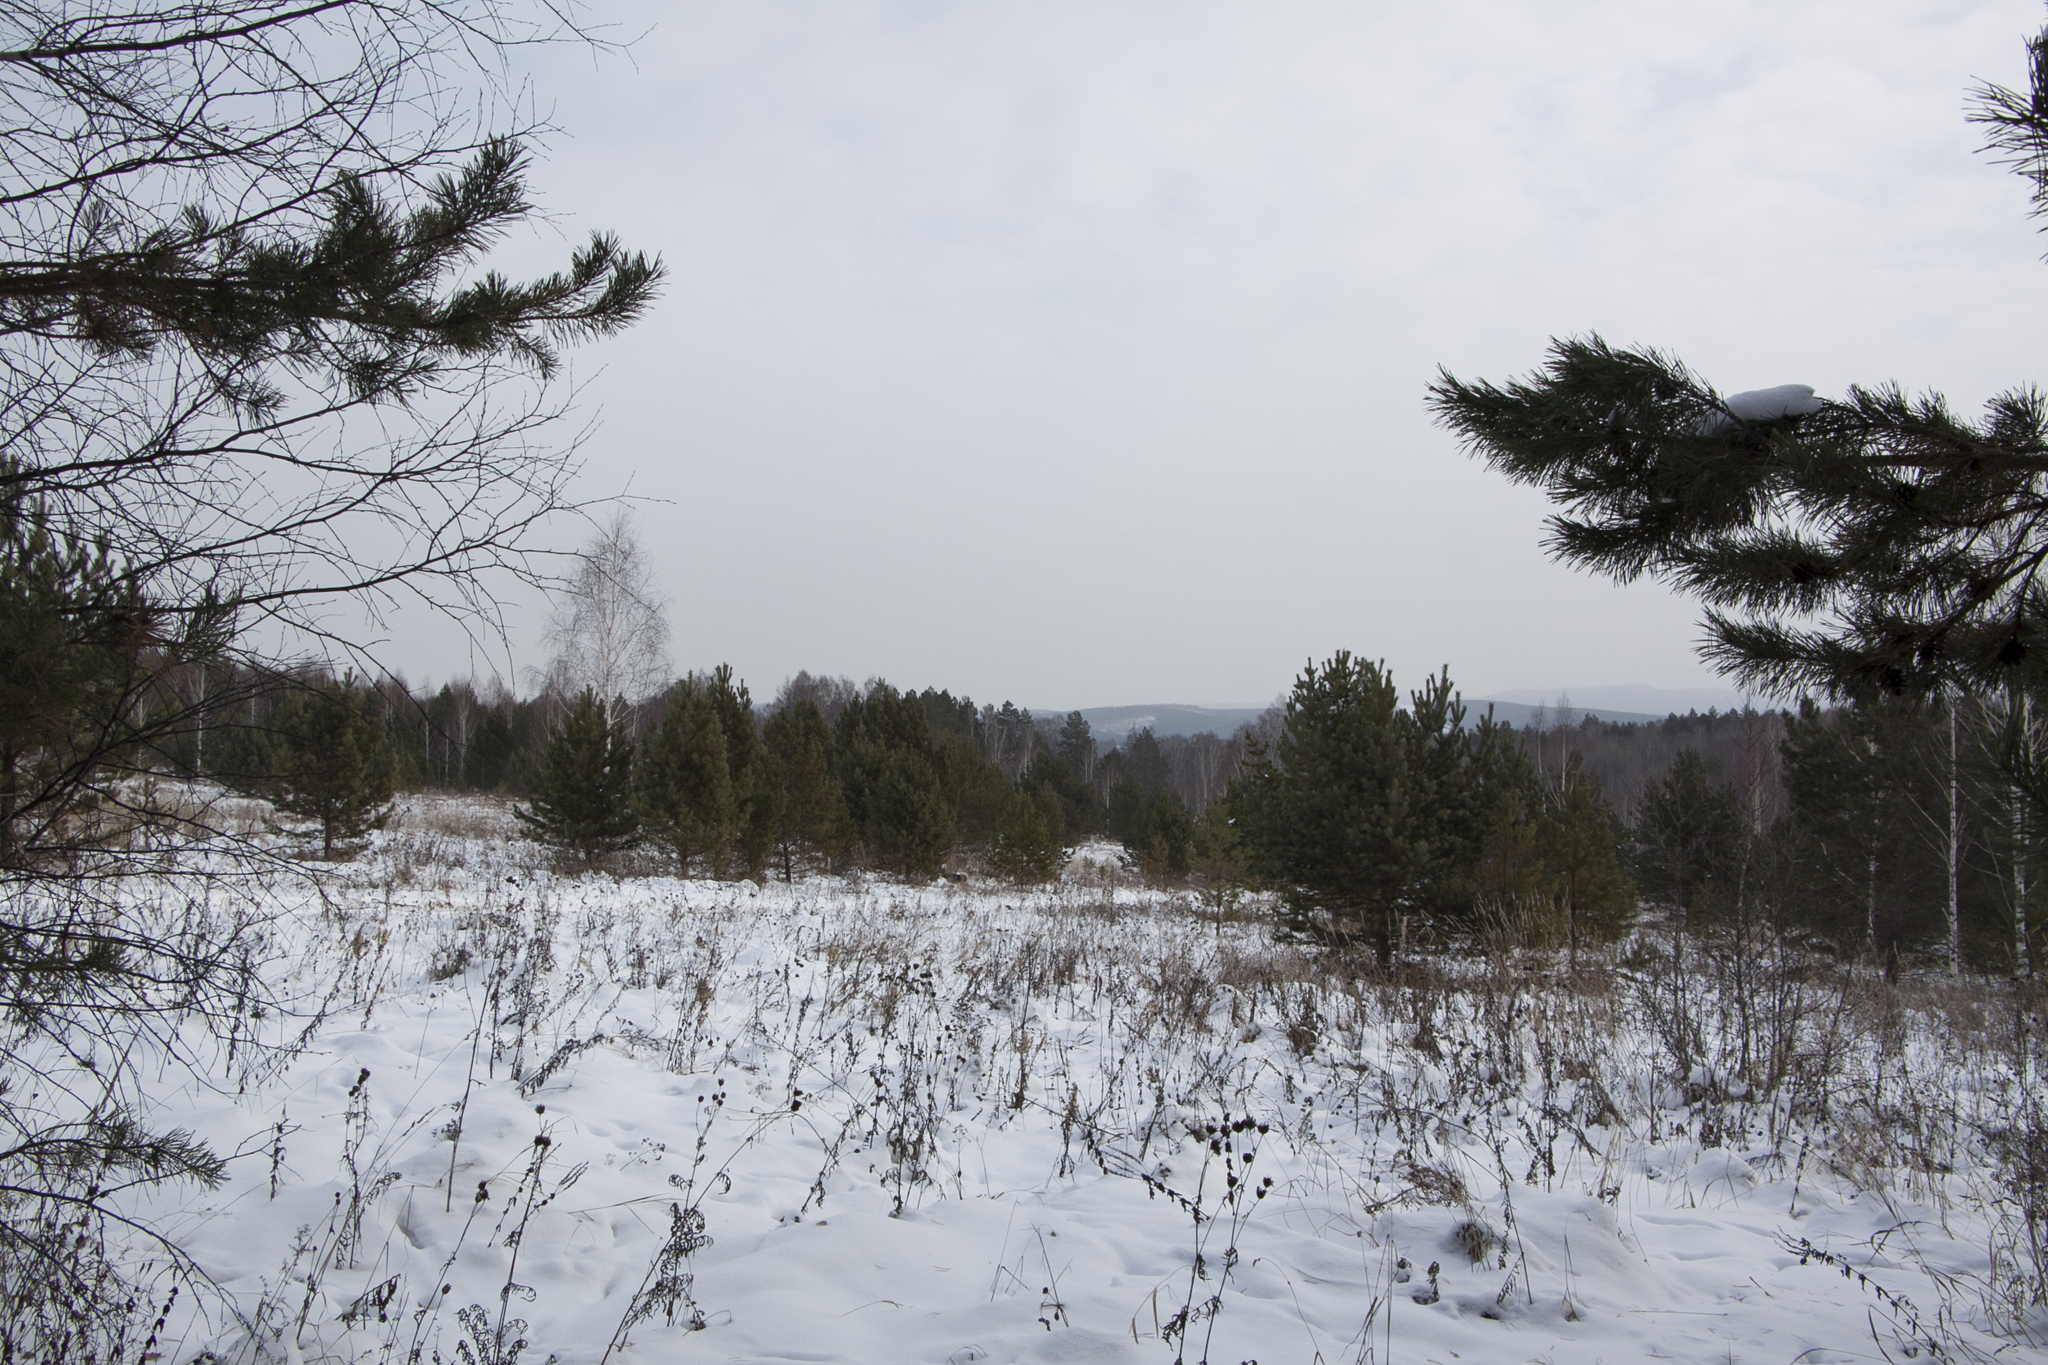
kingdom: Plantae
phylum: Tracheophyta
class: Pinopsida
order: Pinales
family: Pinaceae
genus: Pinus
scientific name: Pinus sylvestris
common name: Scots pine
